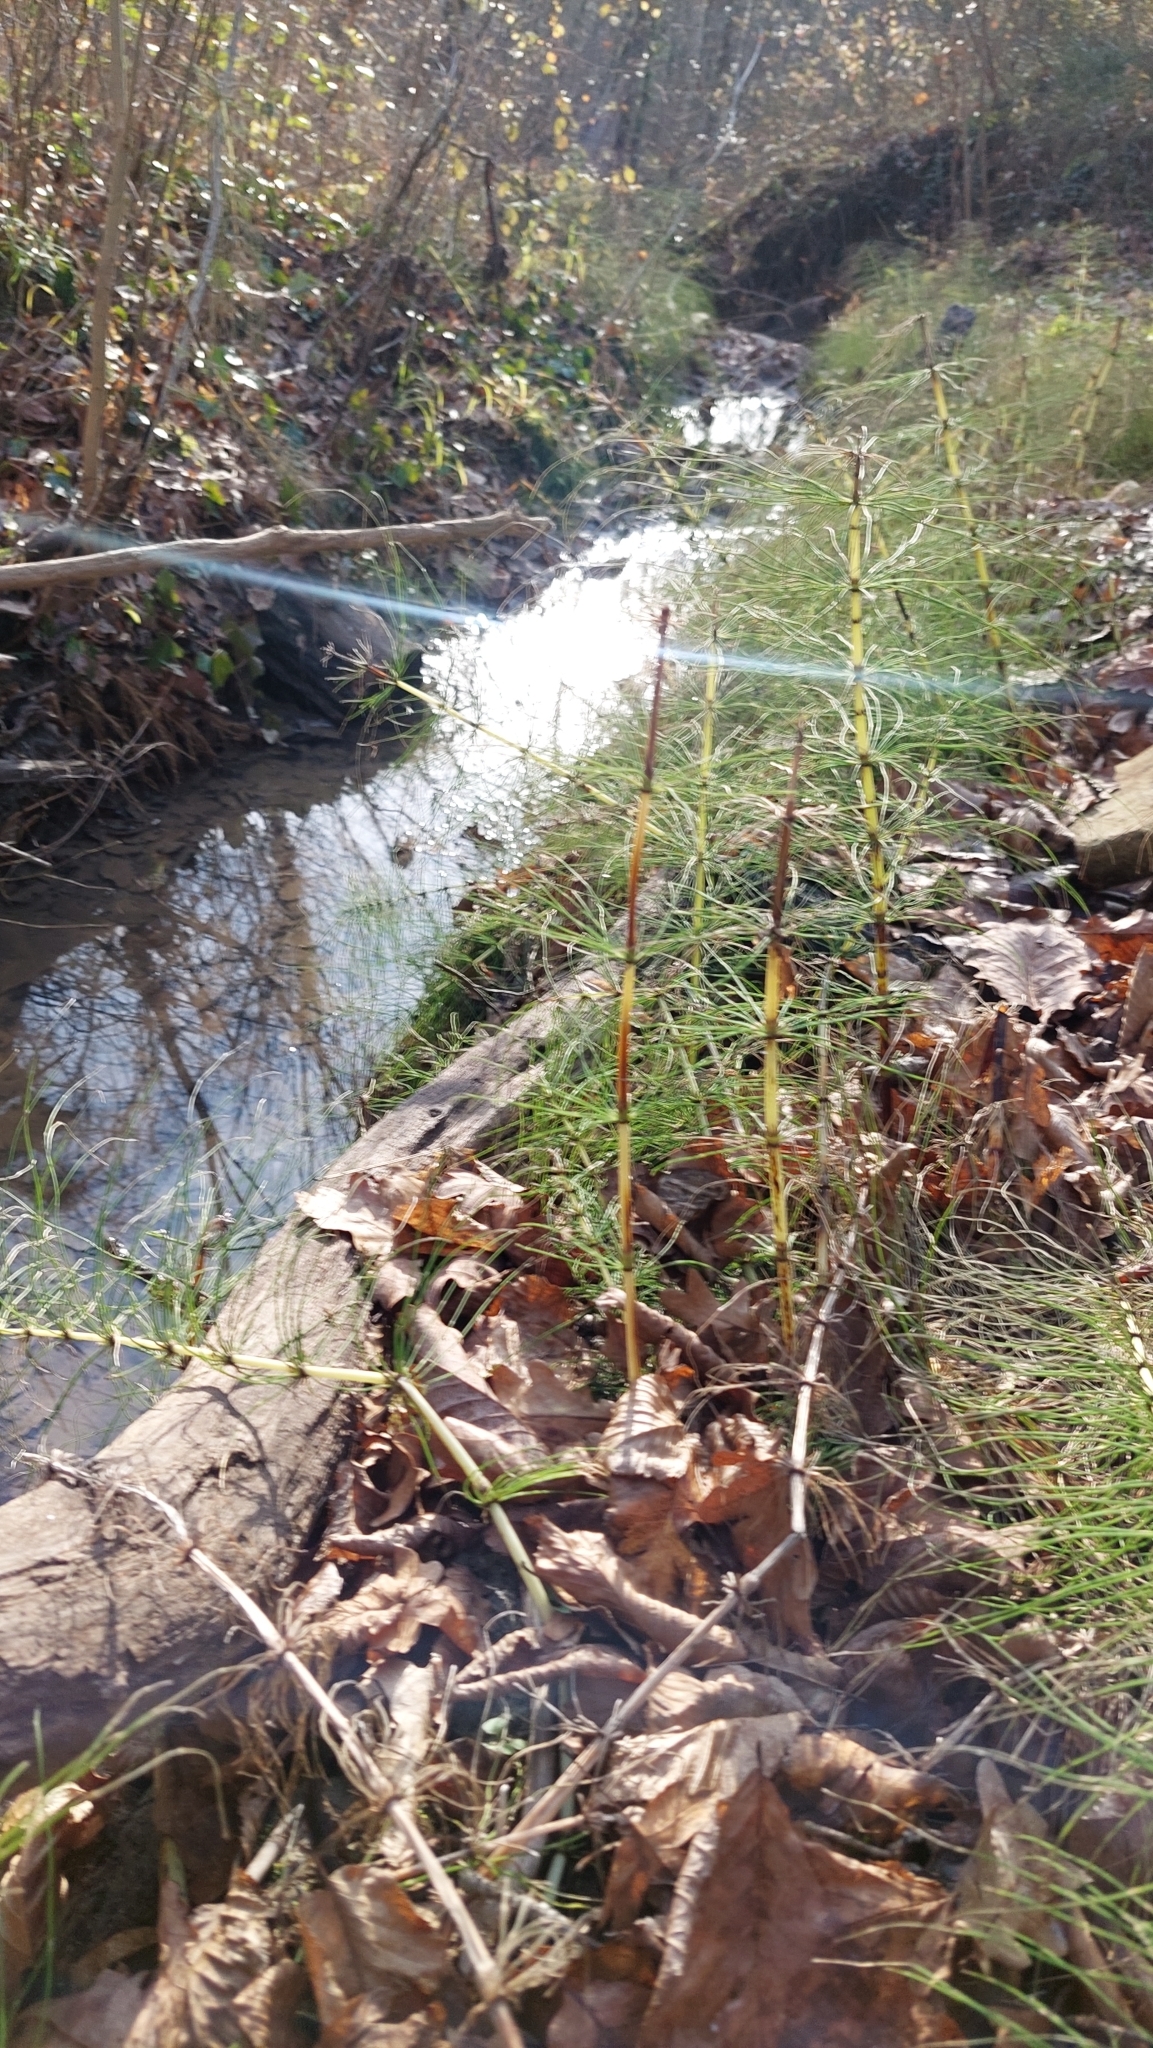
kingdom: Plantae
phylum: Tracheophyta
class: Polypodiopsida
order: Equisetales
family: Equisetaceae
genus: Equisetum
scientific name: Equisetum telmateia
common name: Great horsetail
